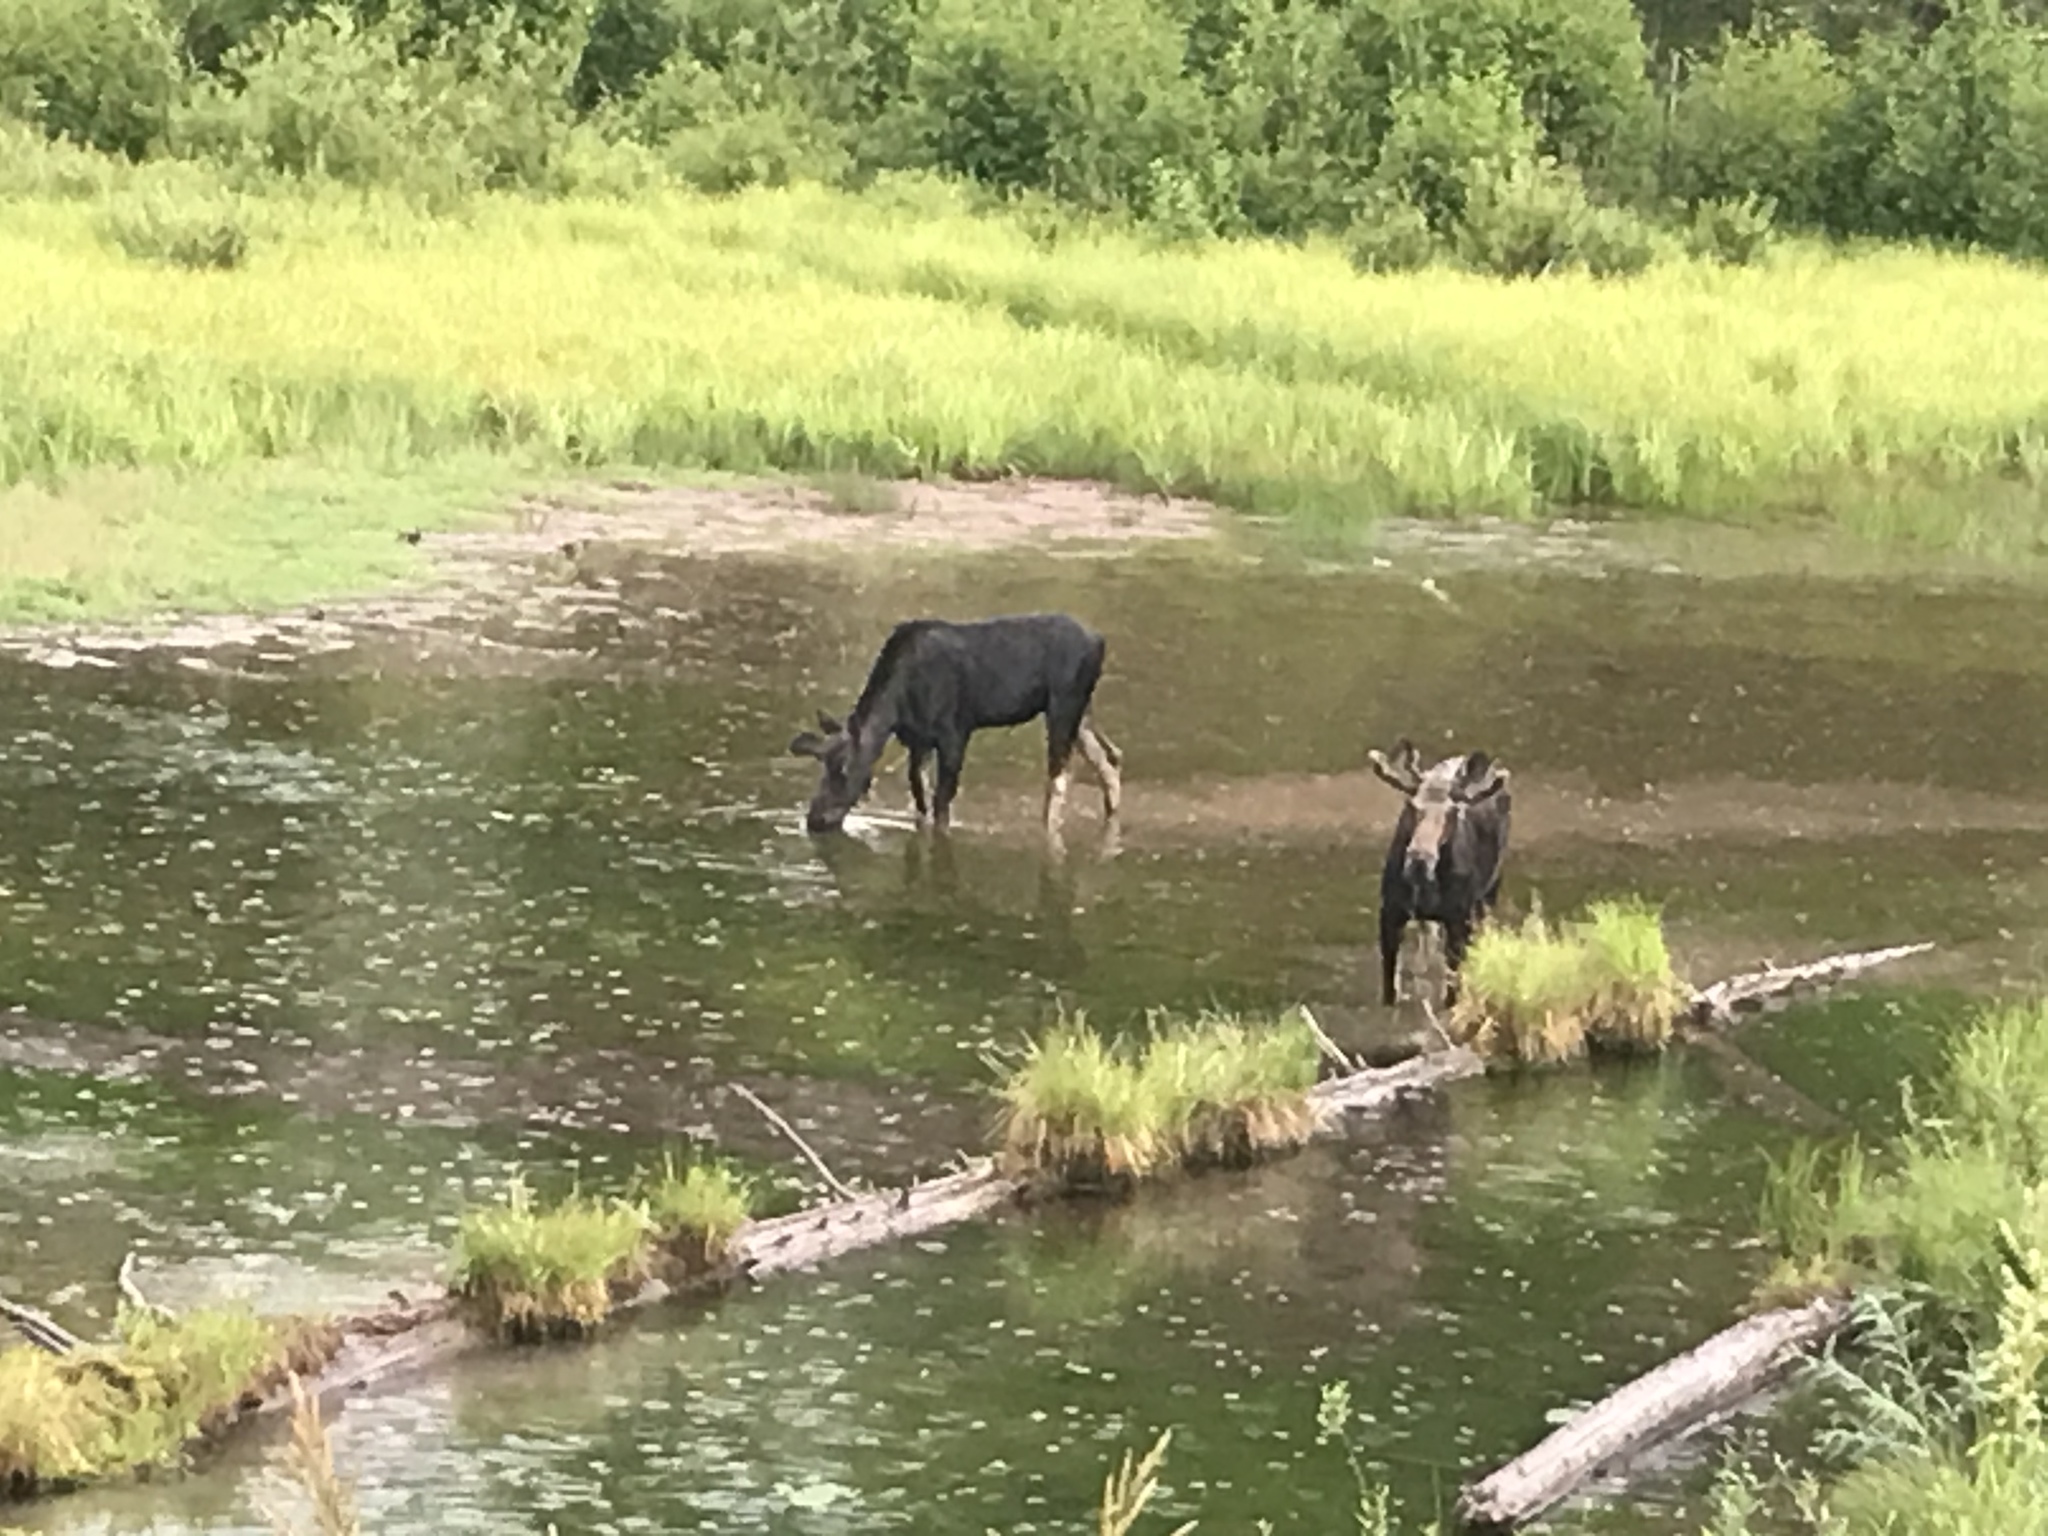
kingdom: Animalia
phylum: Chordata
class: Mammalia
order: Artiodactyla
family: Cervidae
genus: Alces
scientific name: Alces alces
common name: Moose
